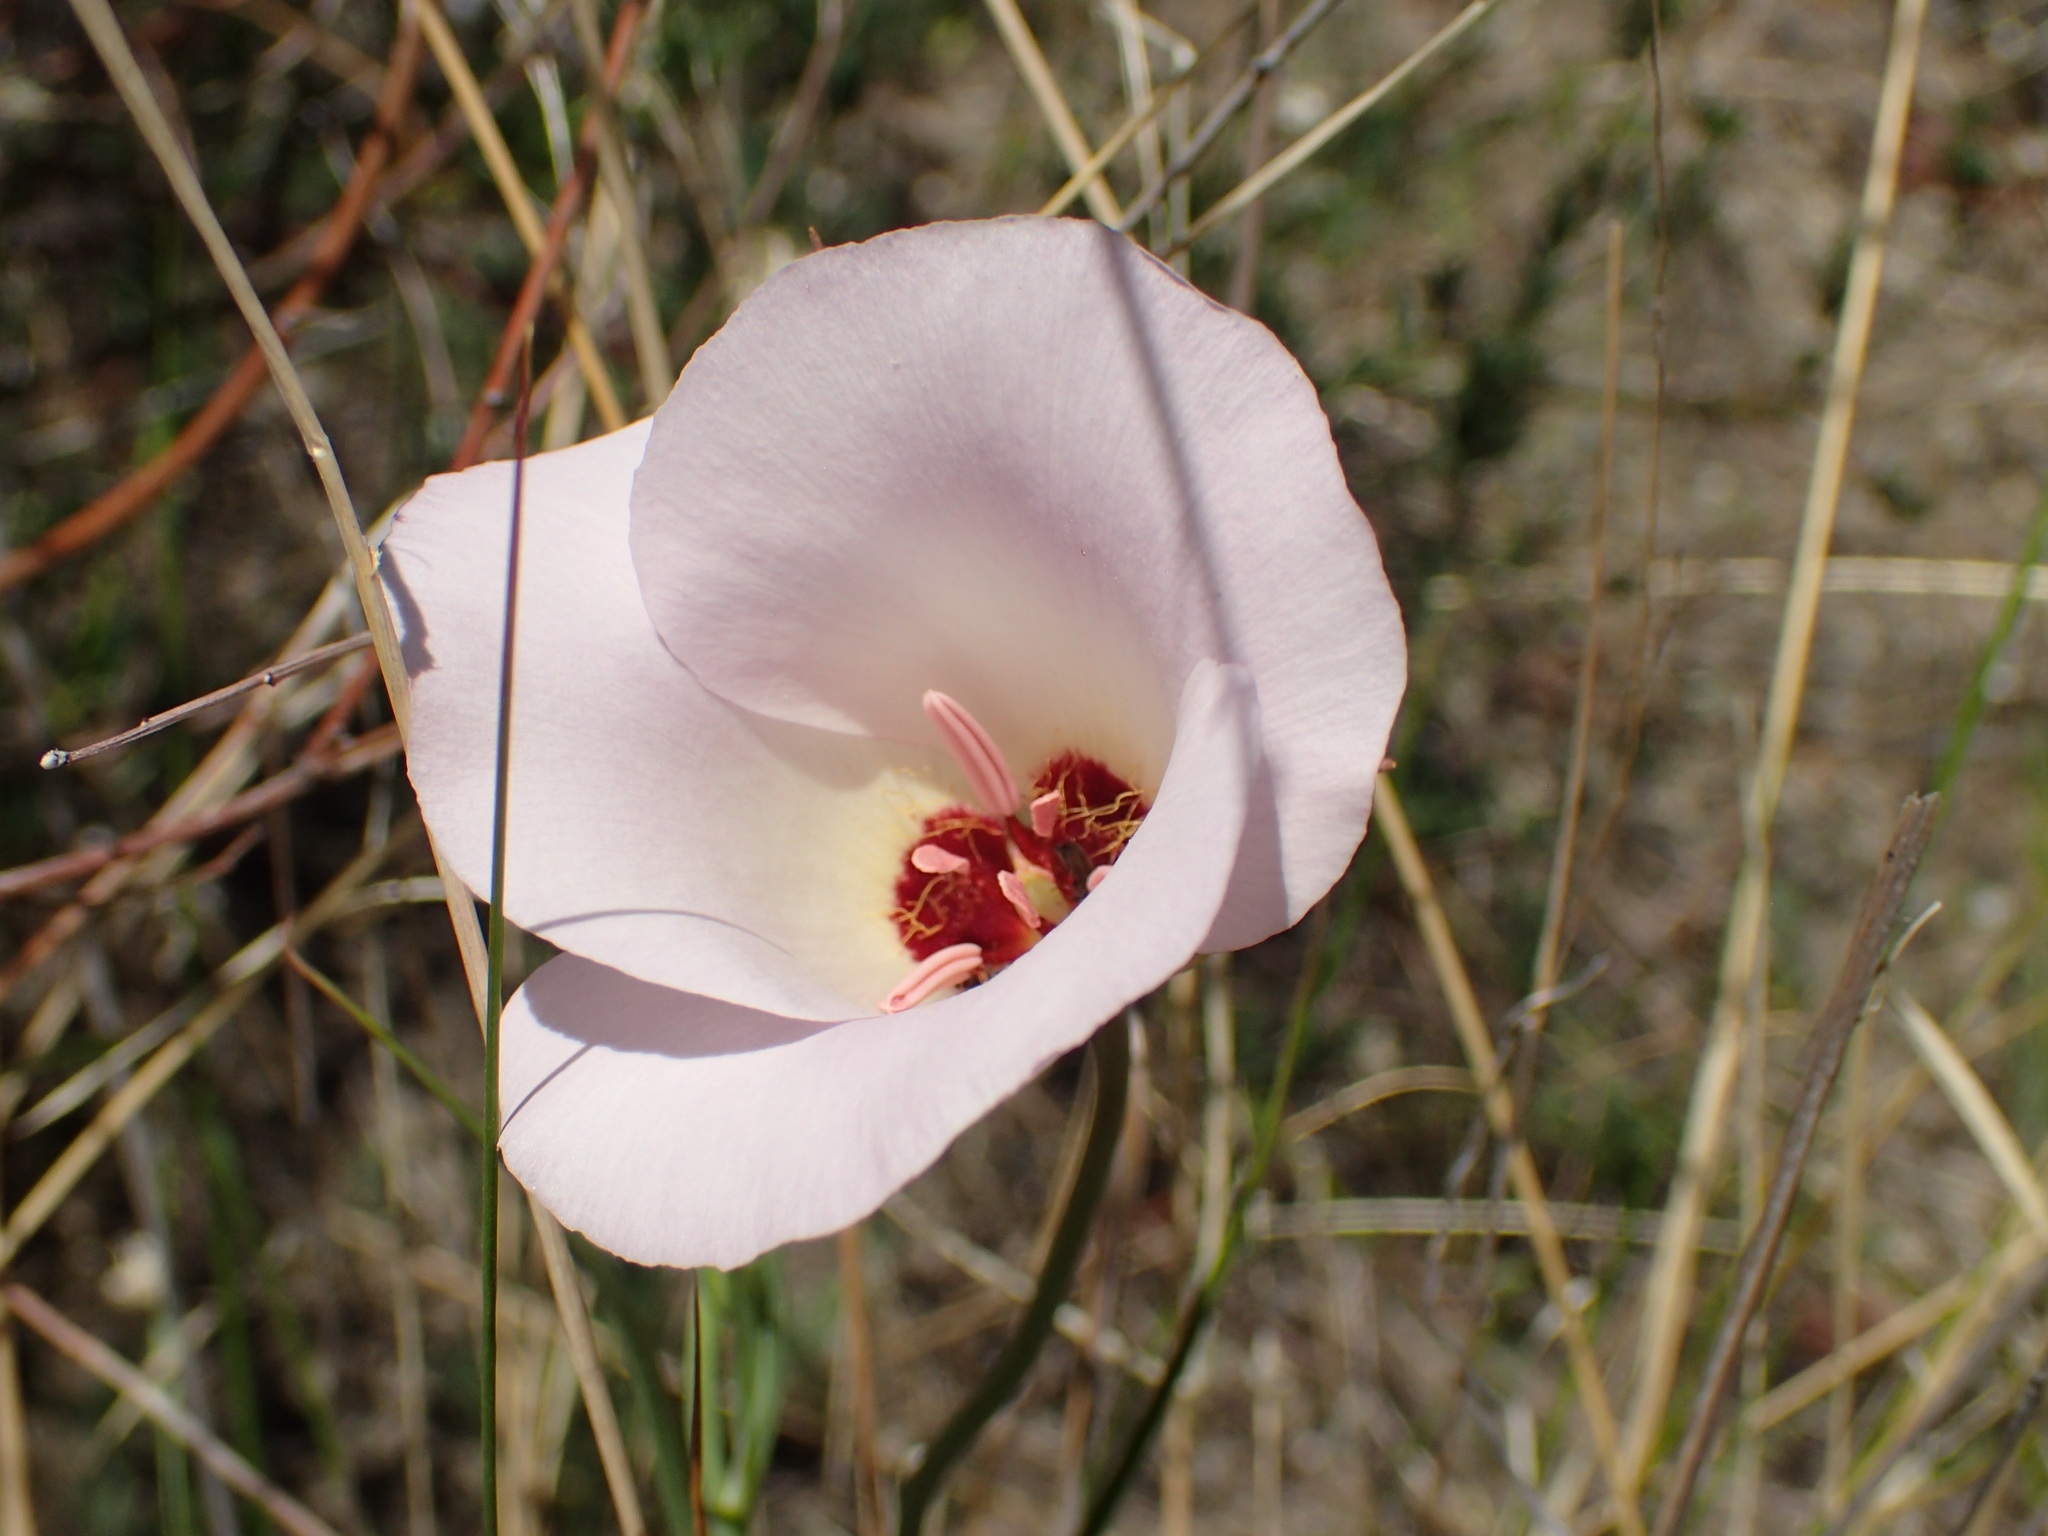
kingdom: Plantae
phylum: Tracheophyta
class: Liliopsida
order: Liliales
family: Liliaceae
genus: Calochortus
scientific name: Calochortus catalinae
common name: Catalina mariposa-lily
